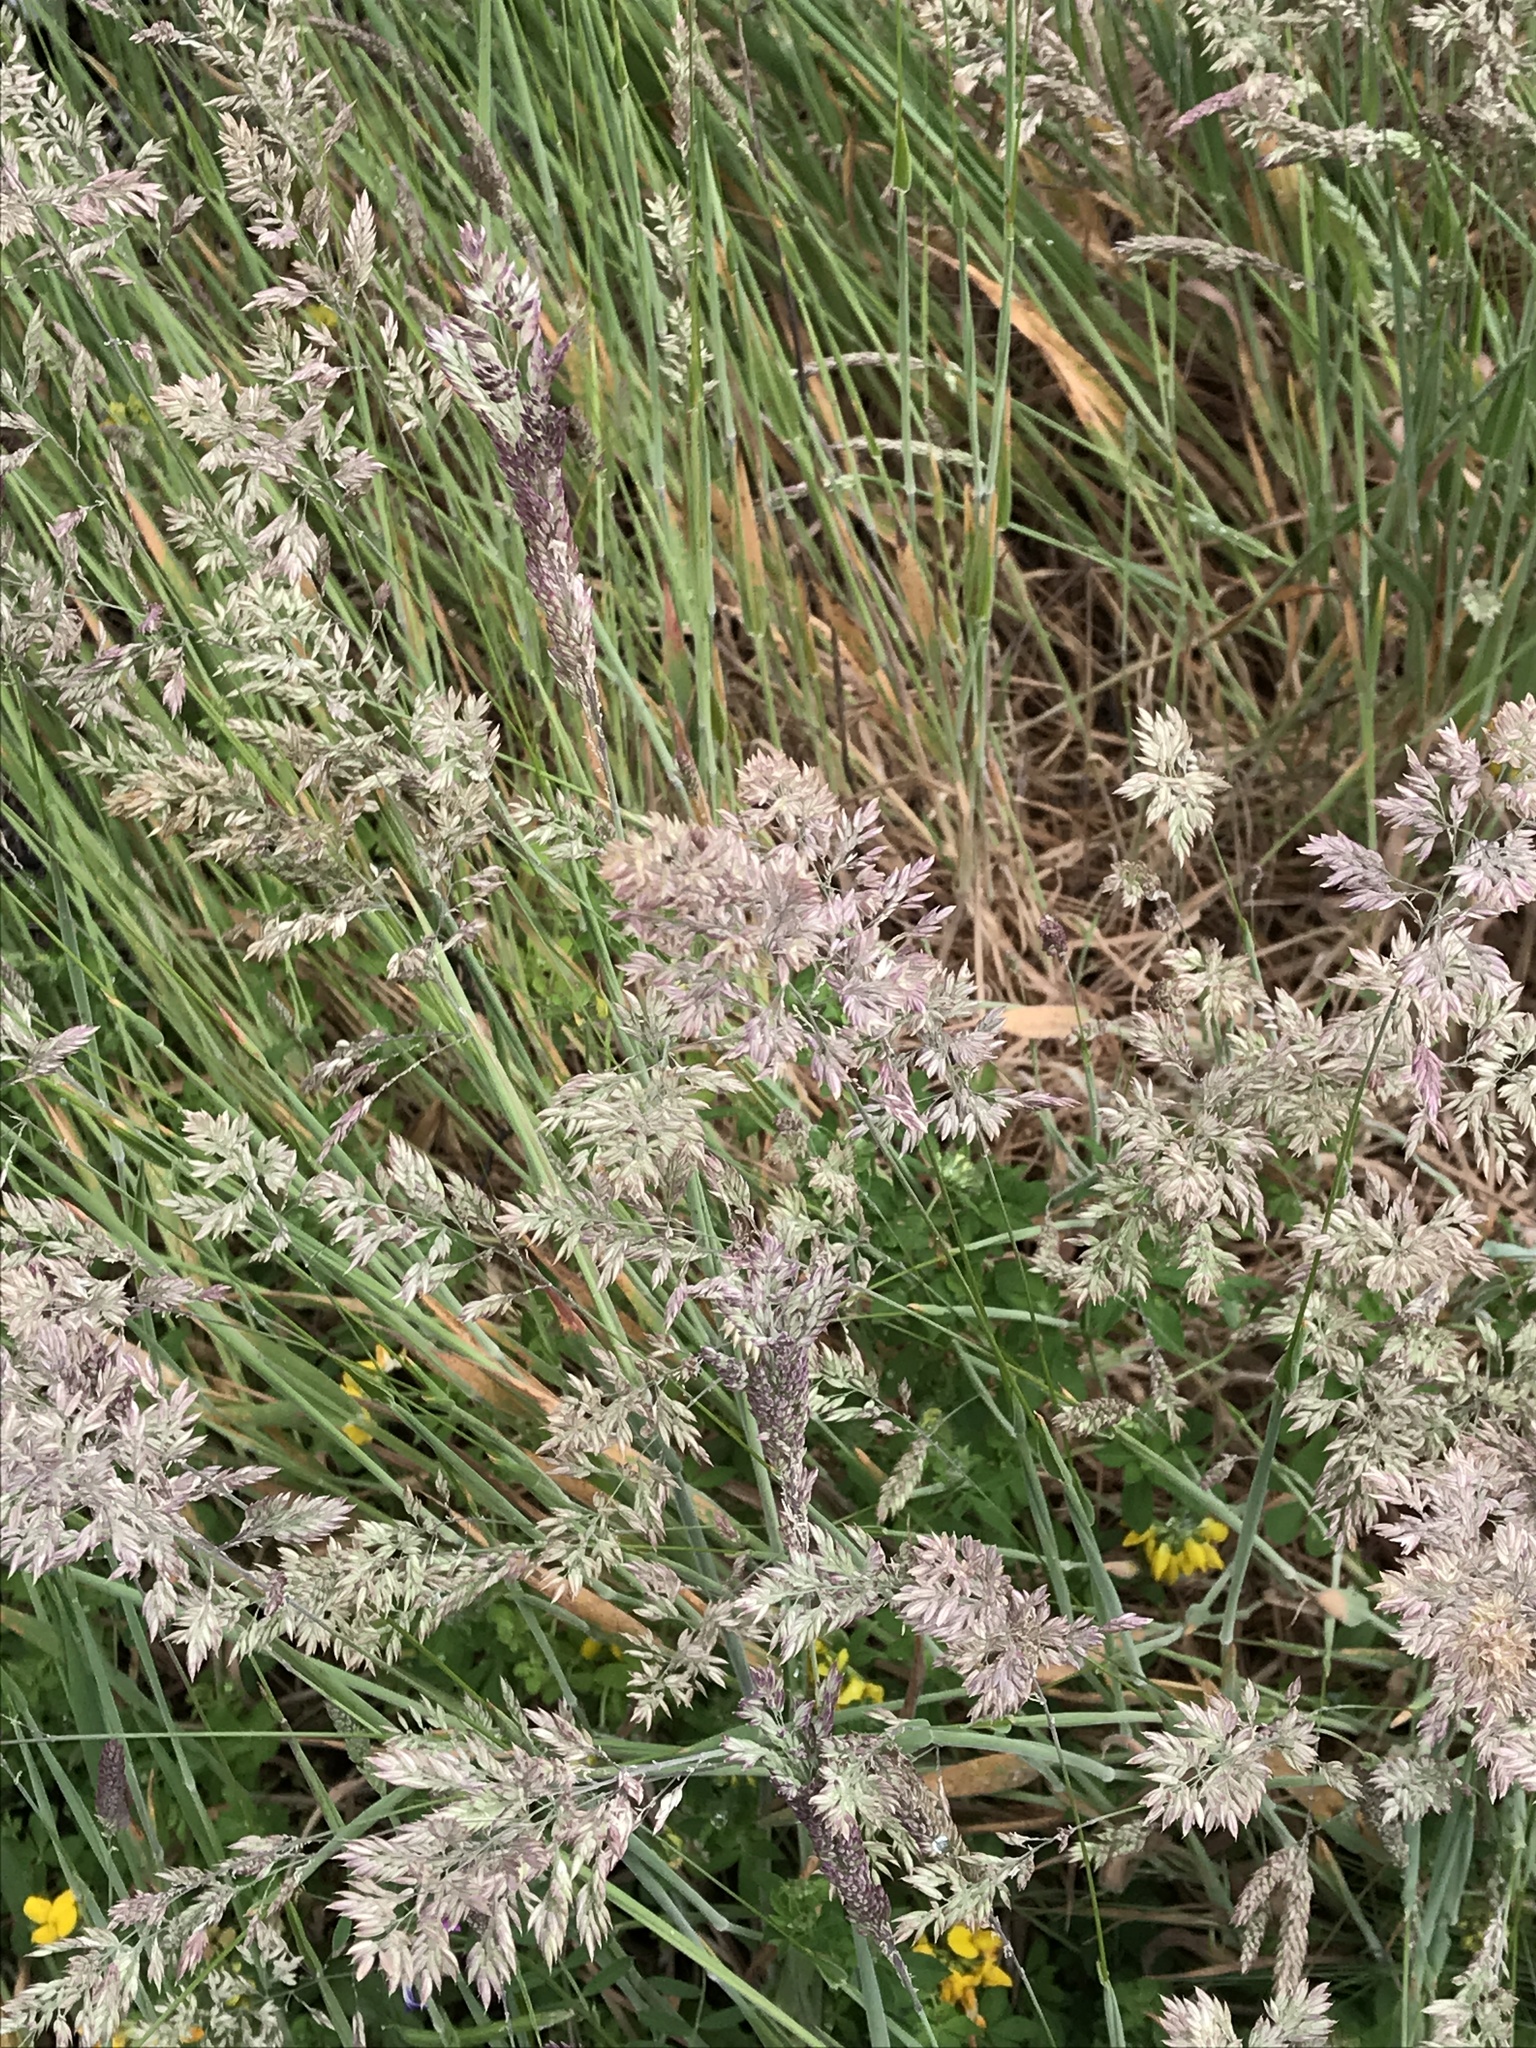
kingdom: Plantae
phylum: Tracheophyta
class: Liliopsida
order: Poales
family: Poaceae
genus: Holcus
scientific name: Holcus lanatus
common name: Yorkshire-fog
